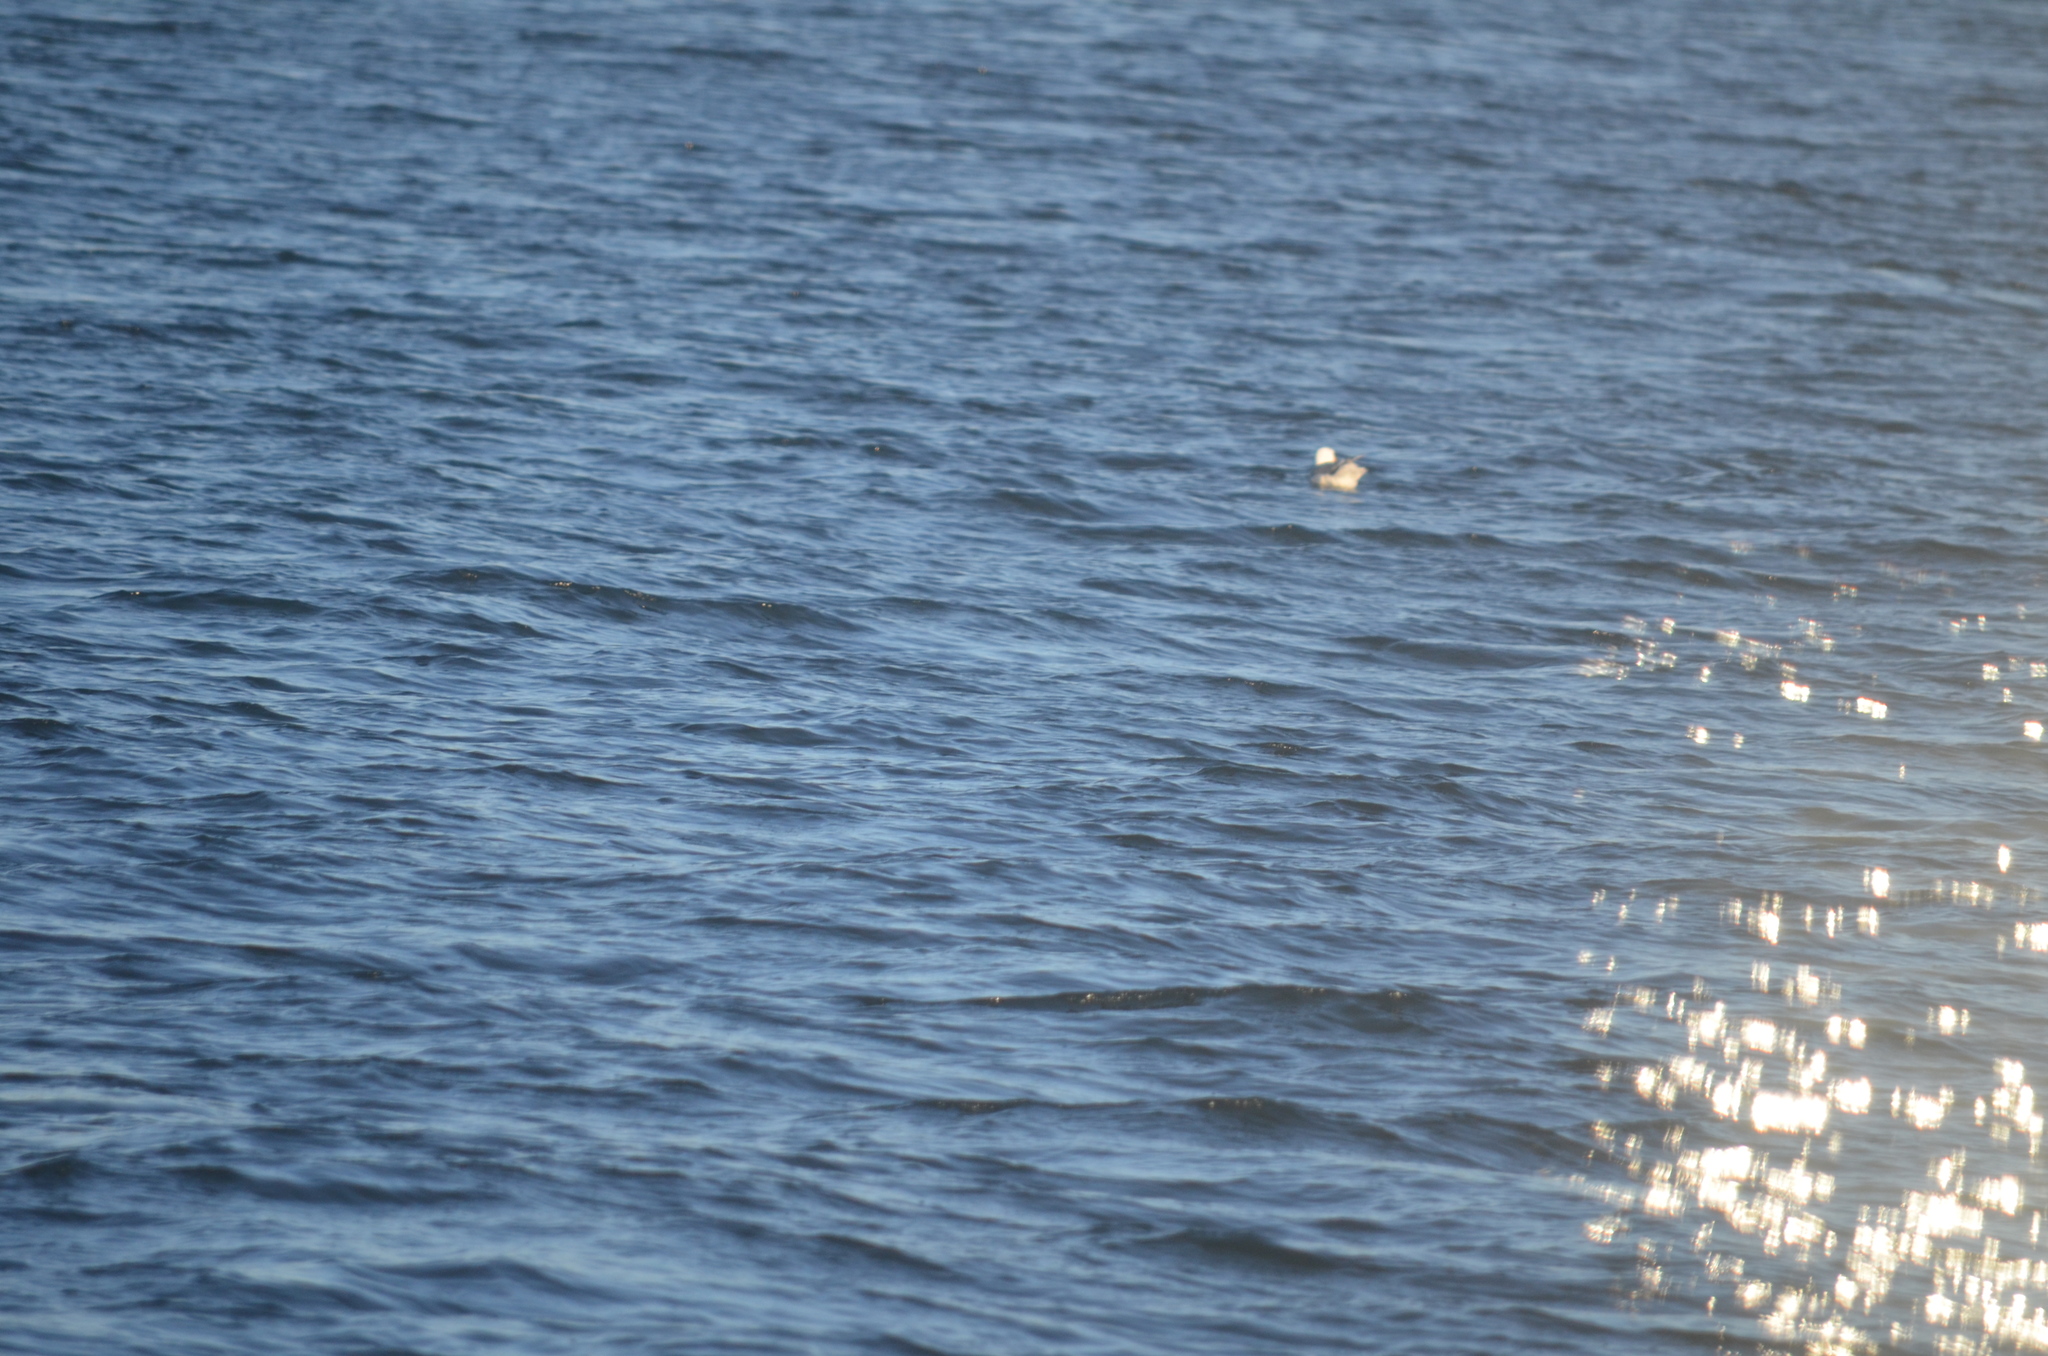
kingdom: Animalia
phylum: Chordata
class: Aves
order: Charadriiformes
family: Laridae
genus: Larus
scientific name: Larus glaucescens
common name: Glaucous-winged gull
